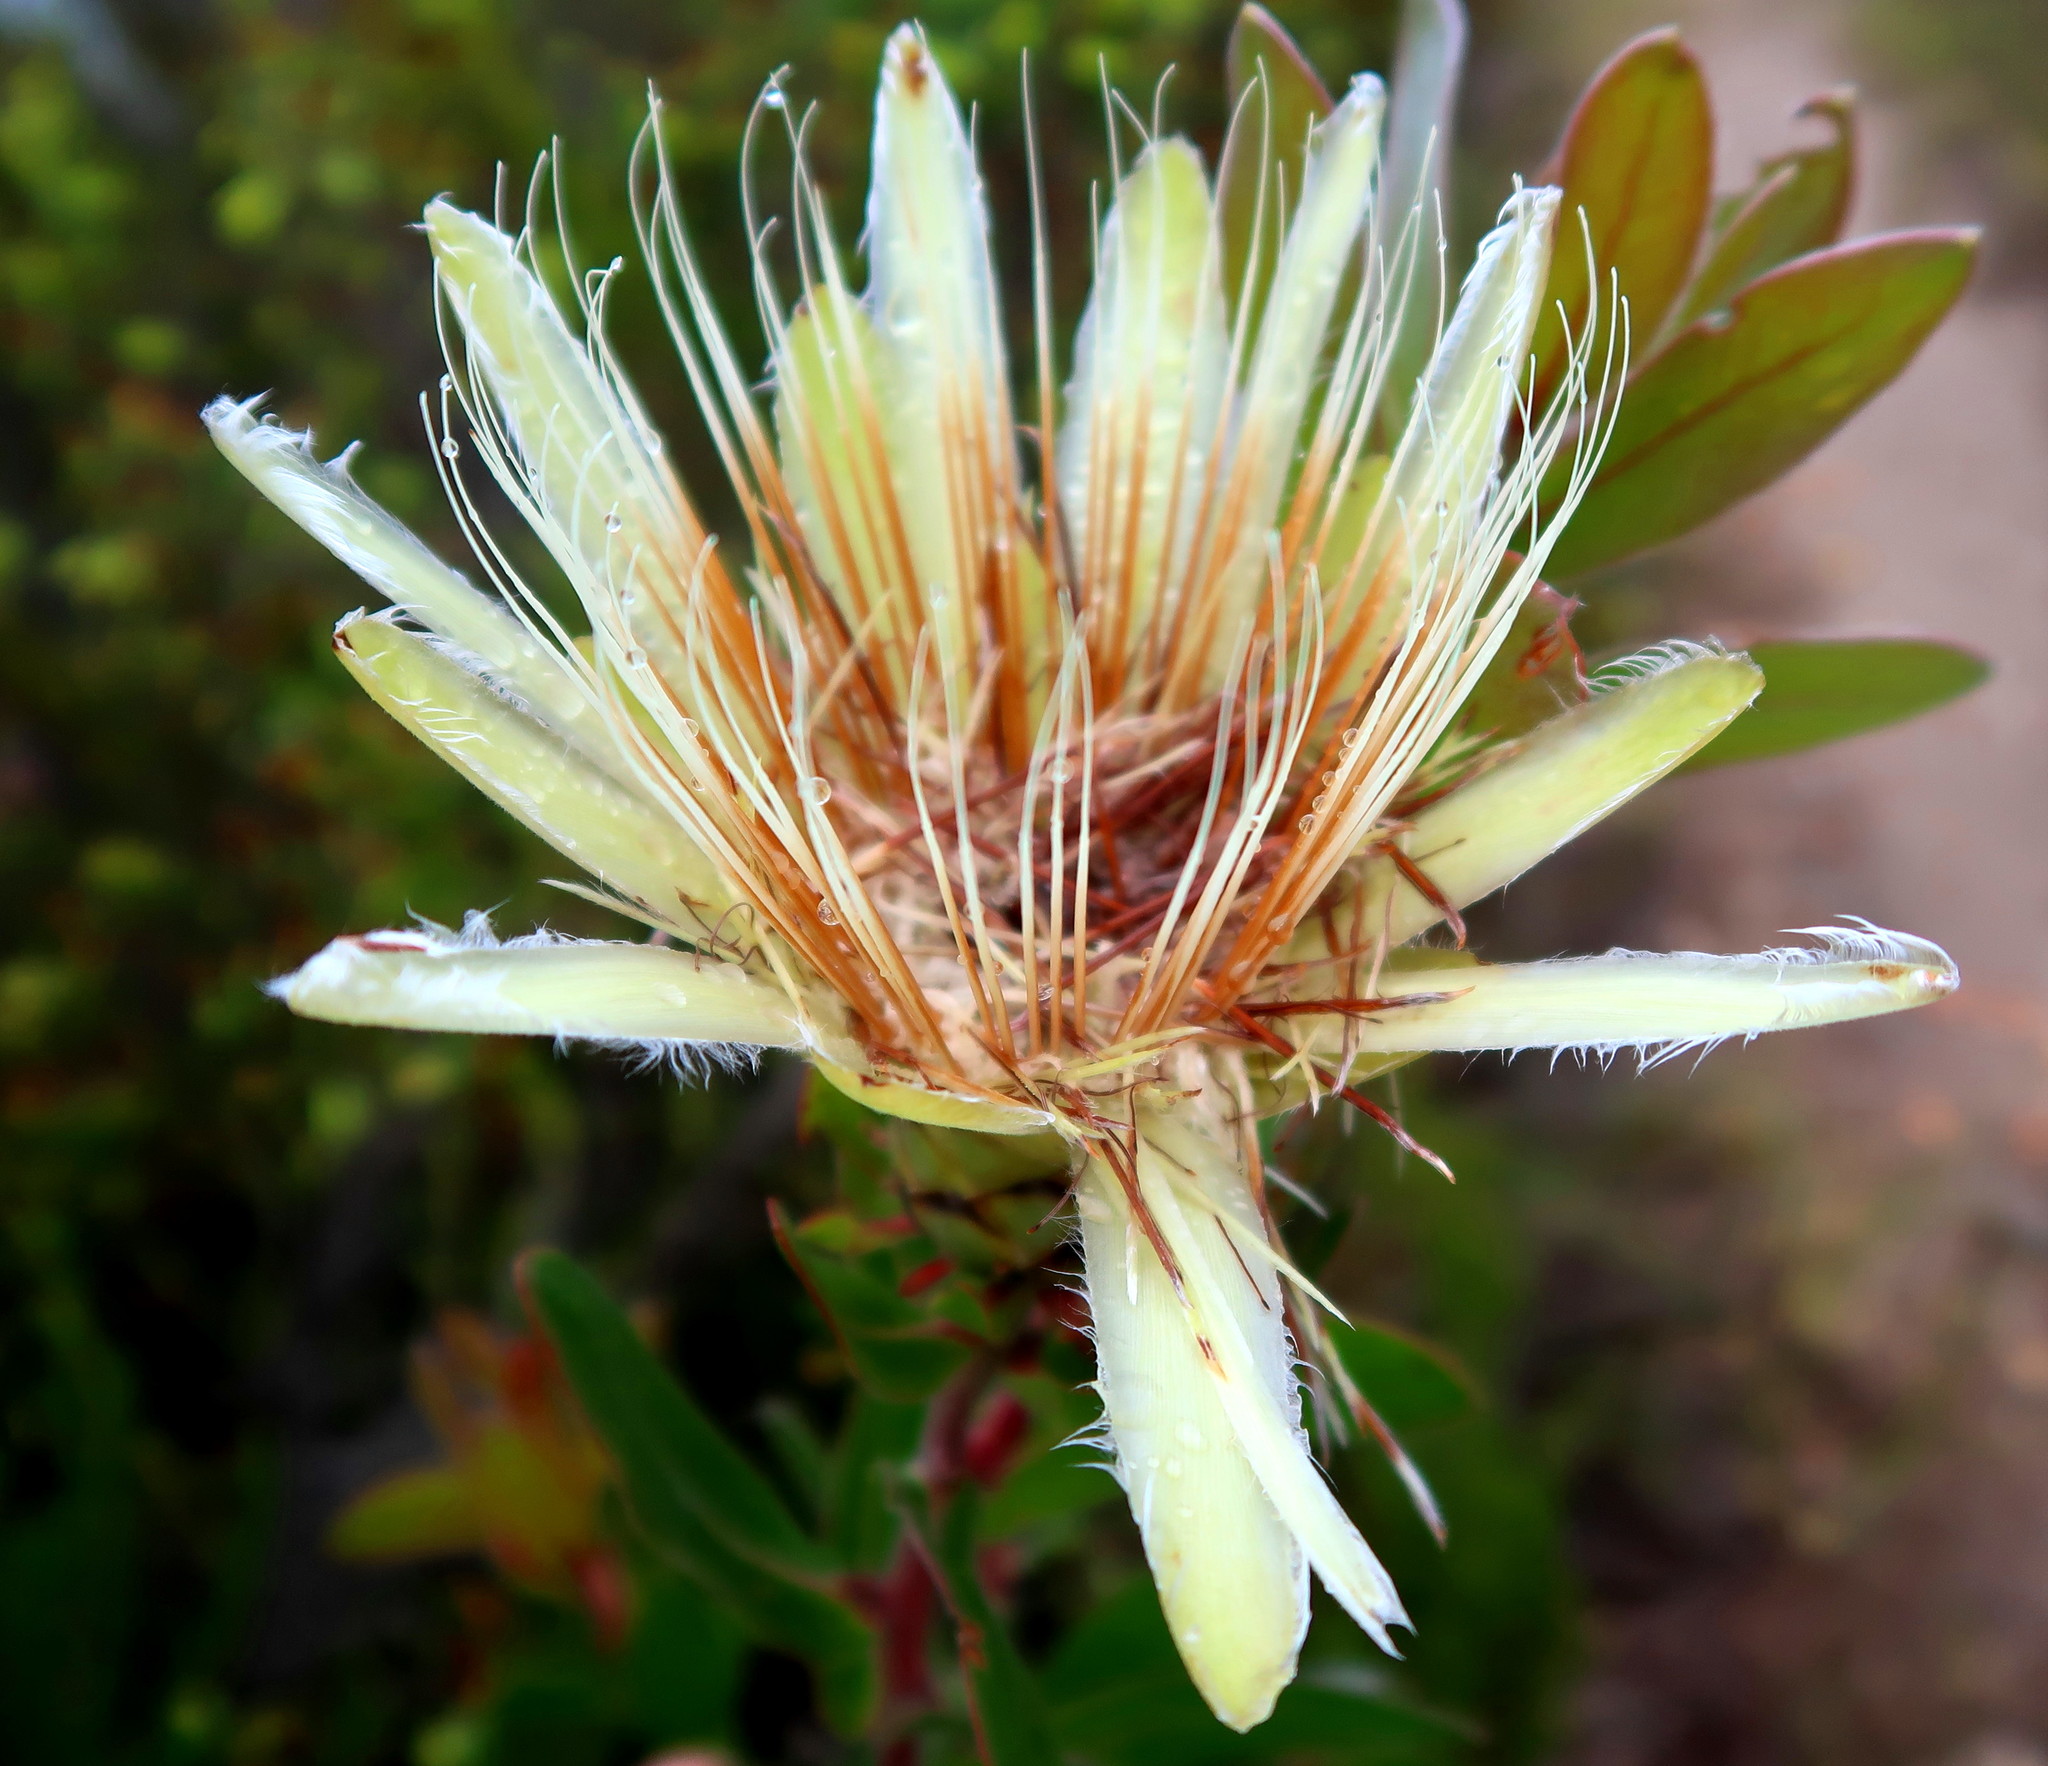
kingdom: Plantae
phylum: Tracheophyta
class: Magnoliopsida
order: Proteales
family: Proteaceae
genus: Protea
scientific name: Protea aurea
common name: Shuttlecock sugarbush
